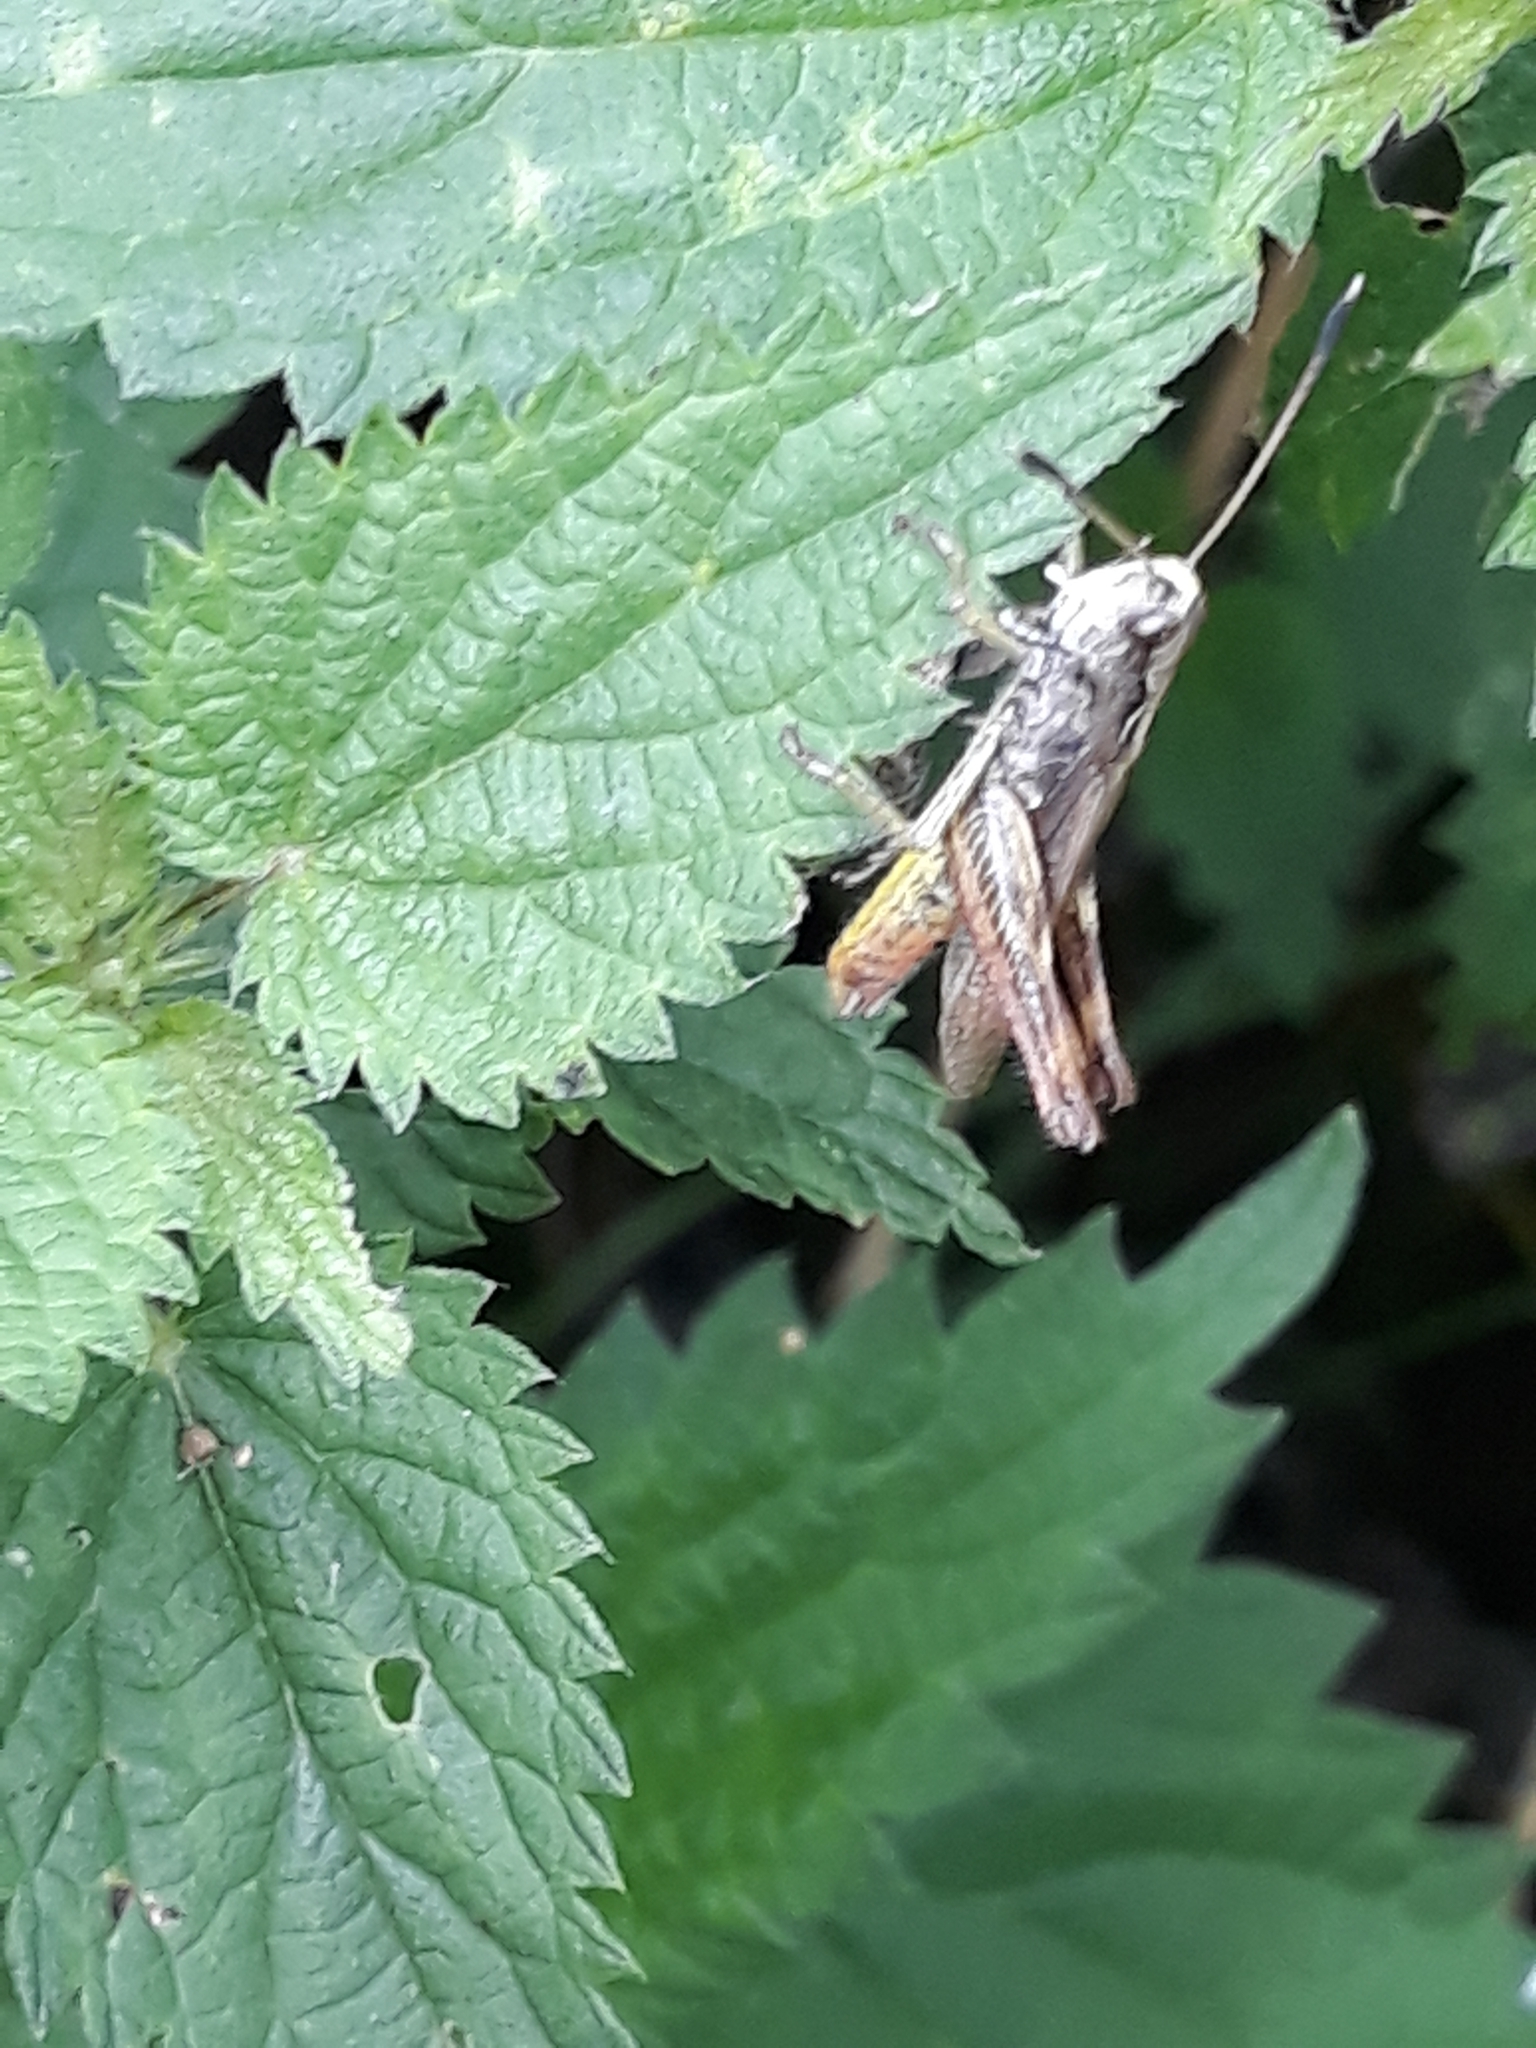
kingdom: Animalia
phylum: Arthropoda
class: Insecta
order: Orthoptera
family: Acrididae
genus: Gomphocerippus
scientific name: Gomphocerippus rufus
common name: Rufous grasshopper
